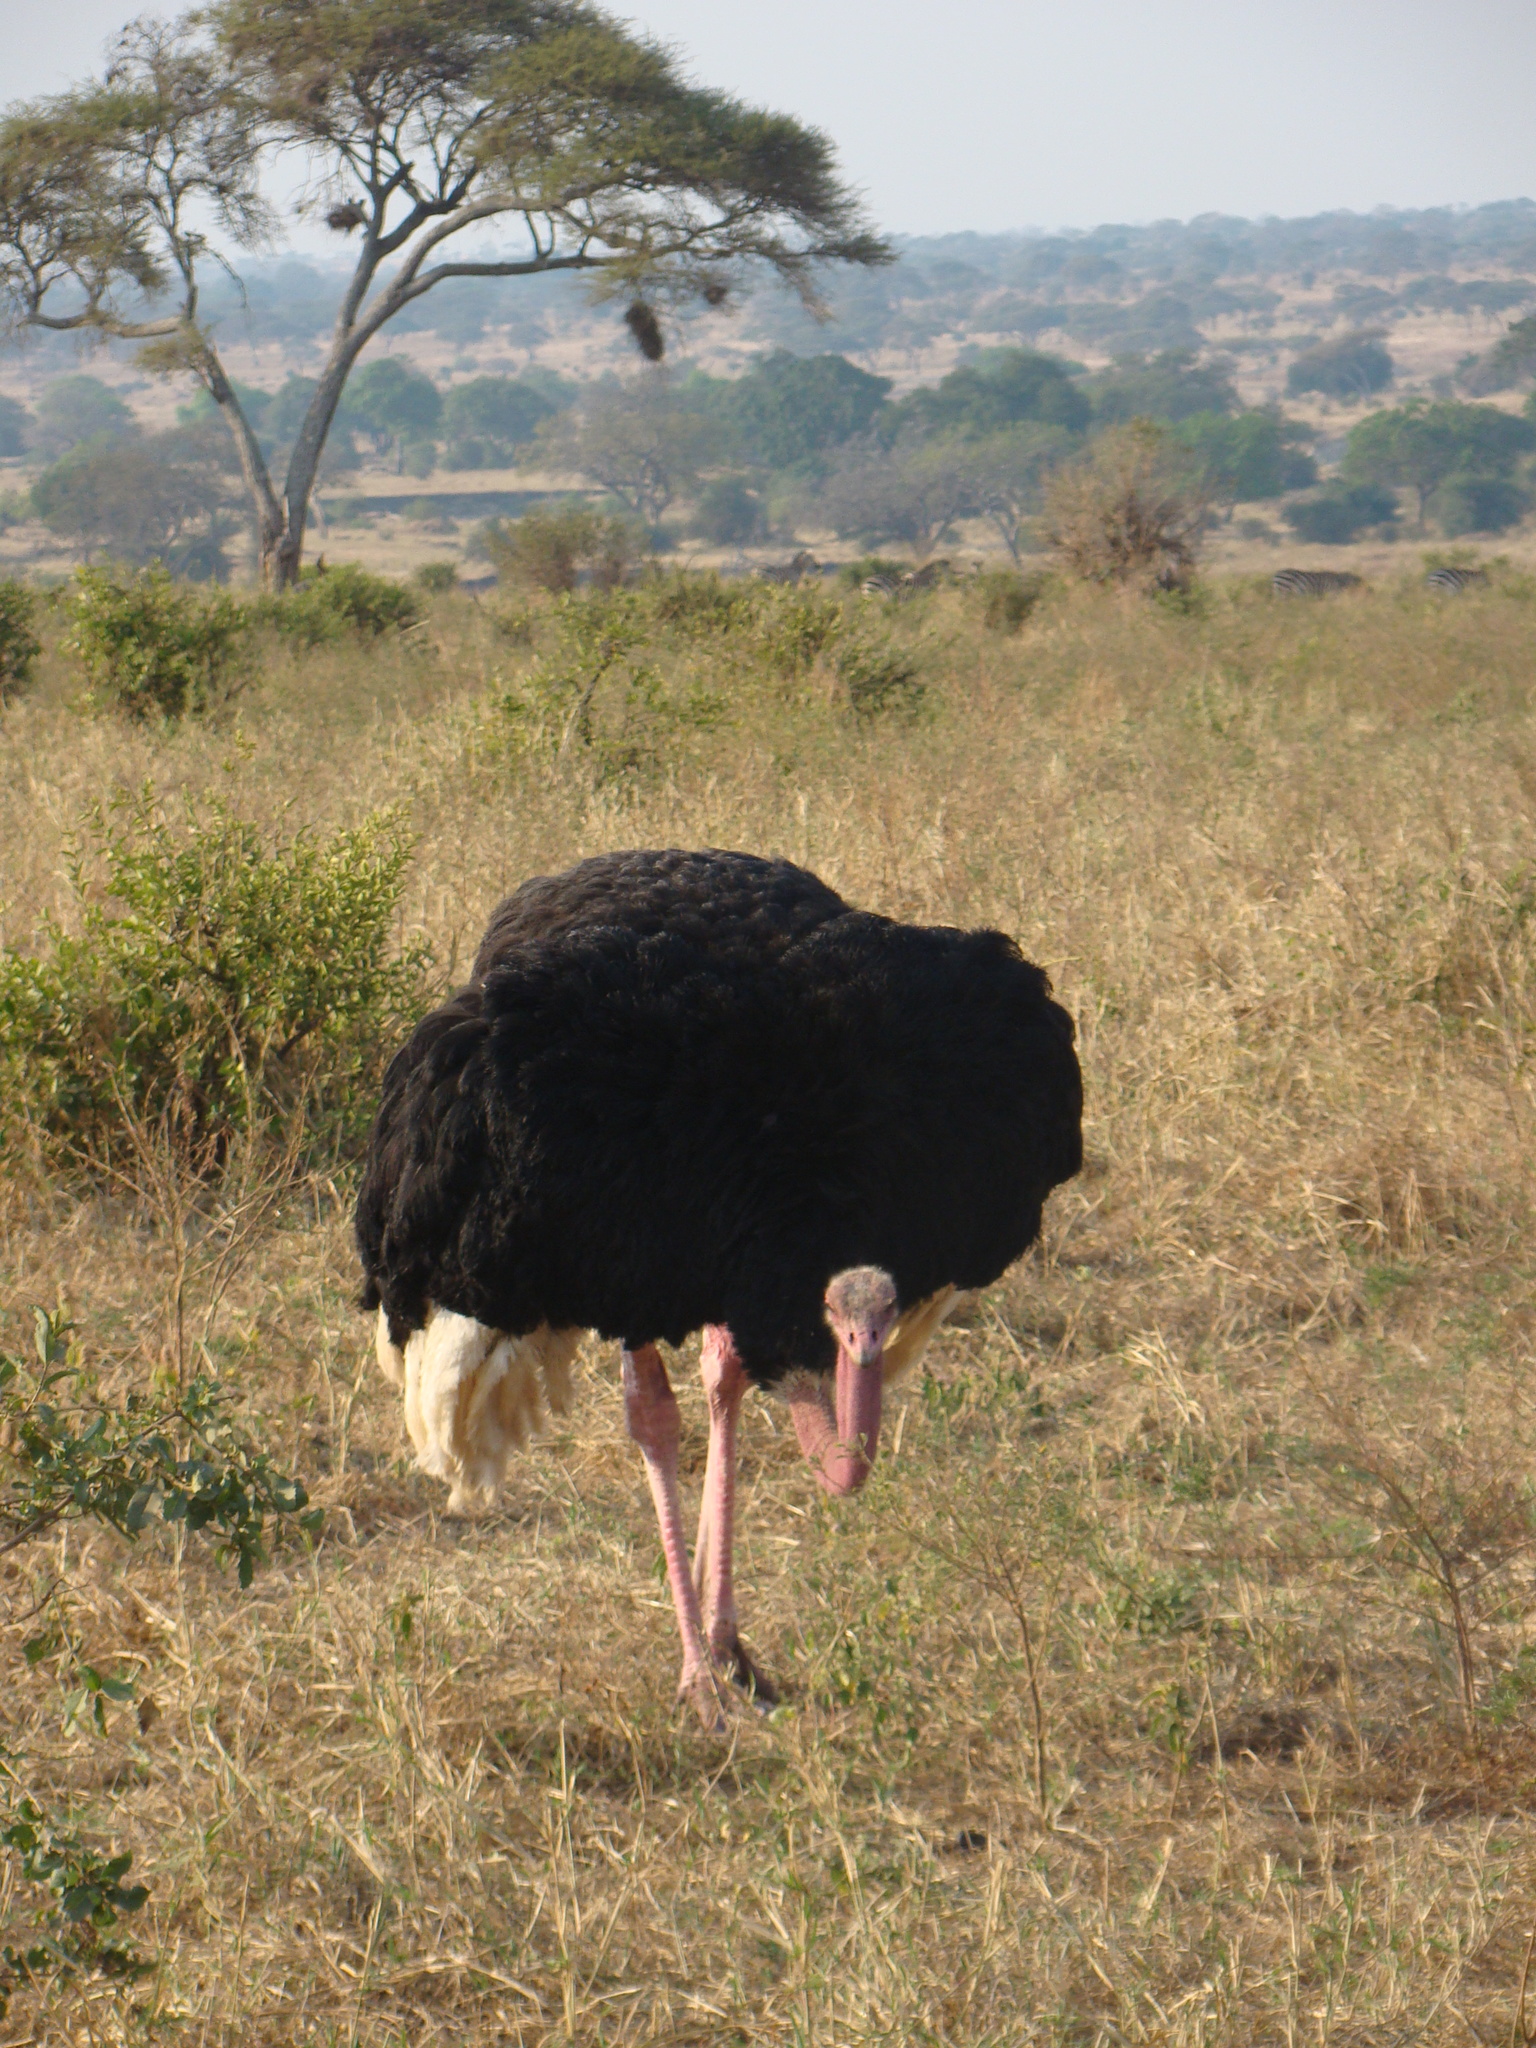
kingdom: Animalia
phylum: Chordata
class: Aves
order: Struthioniformes
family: Struthionidae
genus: Struthio
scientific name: Struthio camelus
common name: Common ostrich
